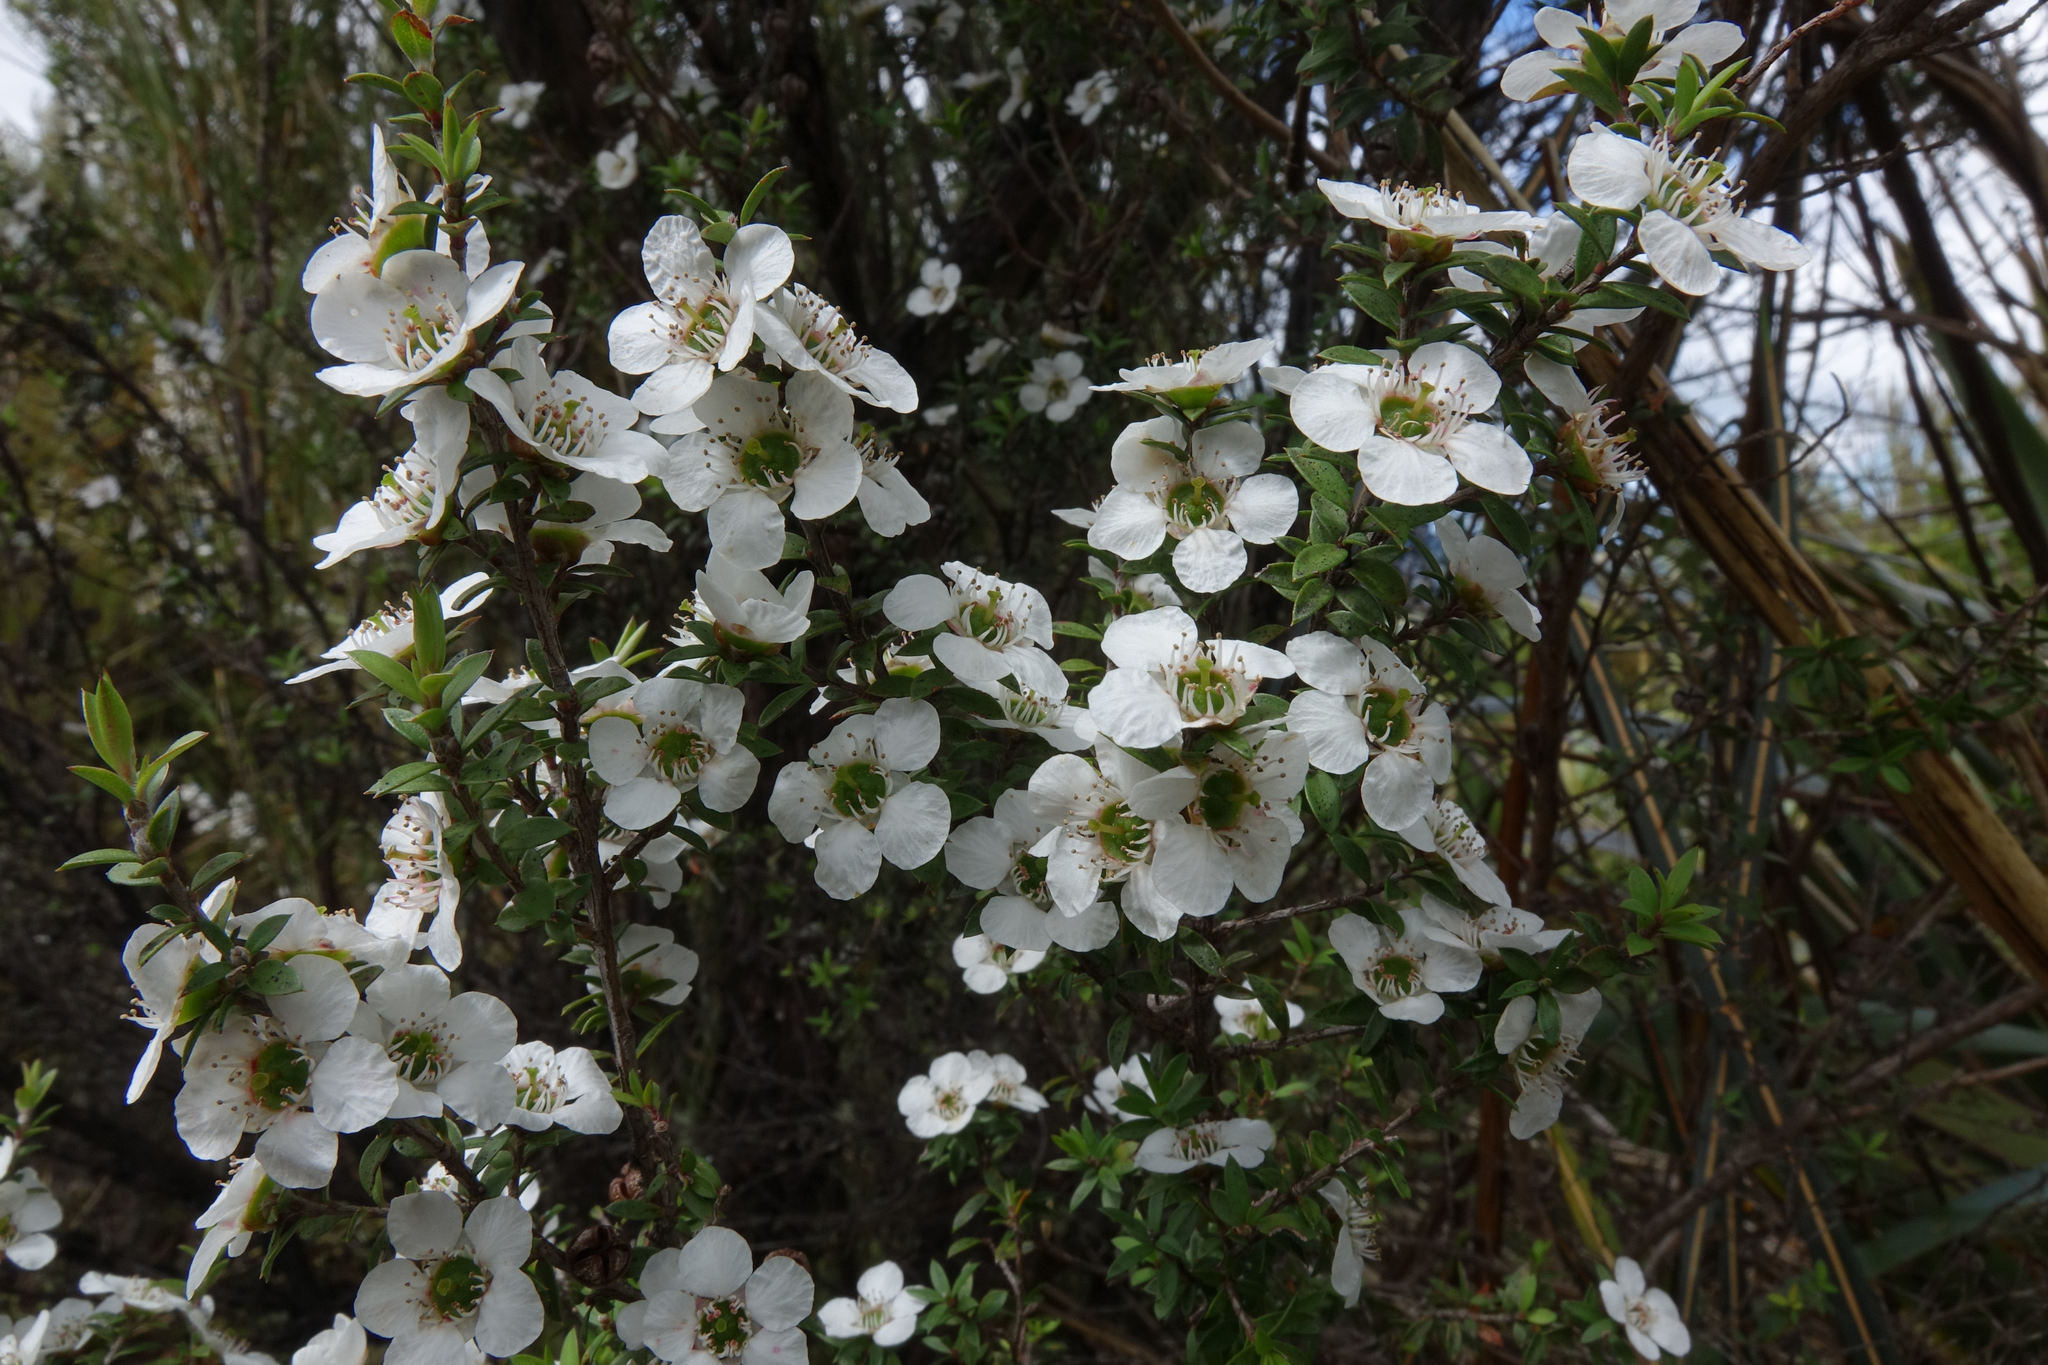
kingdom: Plantae
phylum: Tracheophyta
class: Magnoliopsida
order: Myrtales
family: Myrtaceae
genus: Leptospermum
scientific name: Leptospermum scoparium
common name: Broom tea-tree
